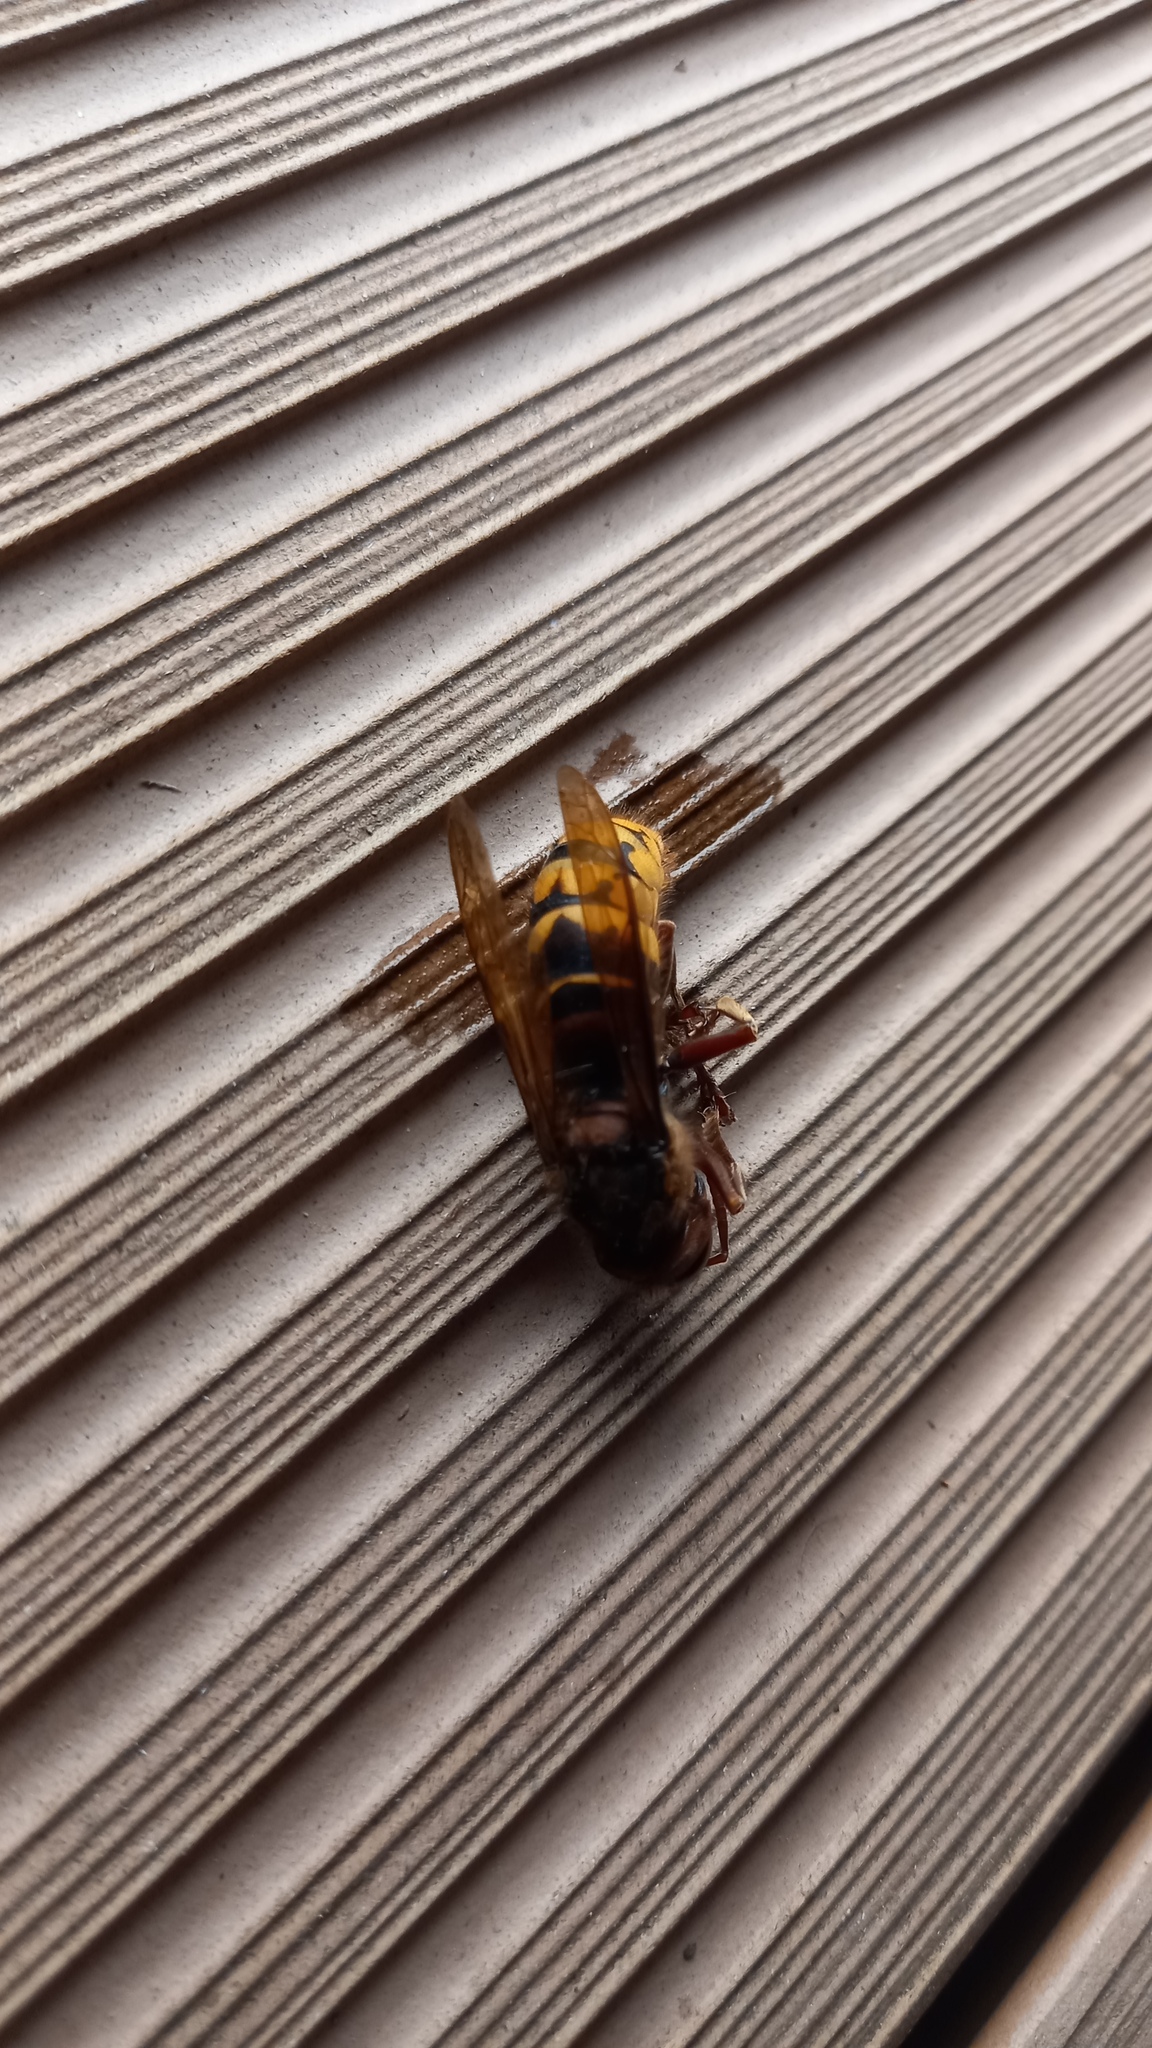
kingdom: Animalia
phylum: Arthropoda
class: Insecta
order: Hymenoptera
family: Vespidae
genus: Vespa
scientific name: Vespa crabro
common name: Hornet
